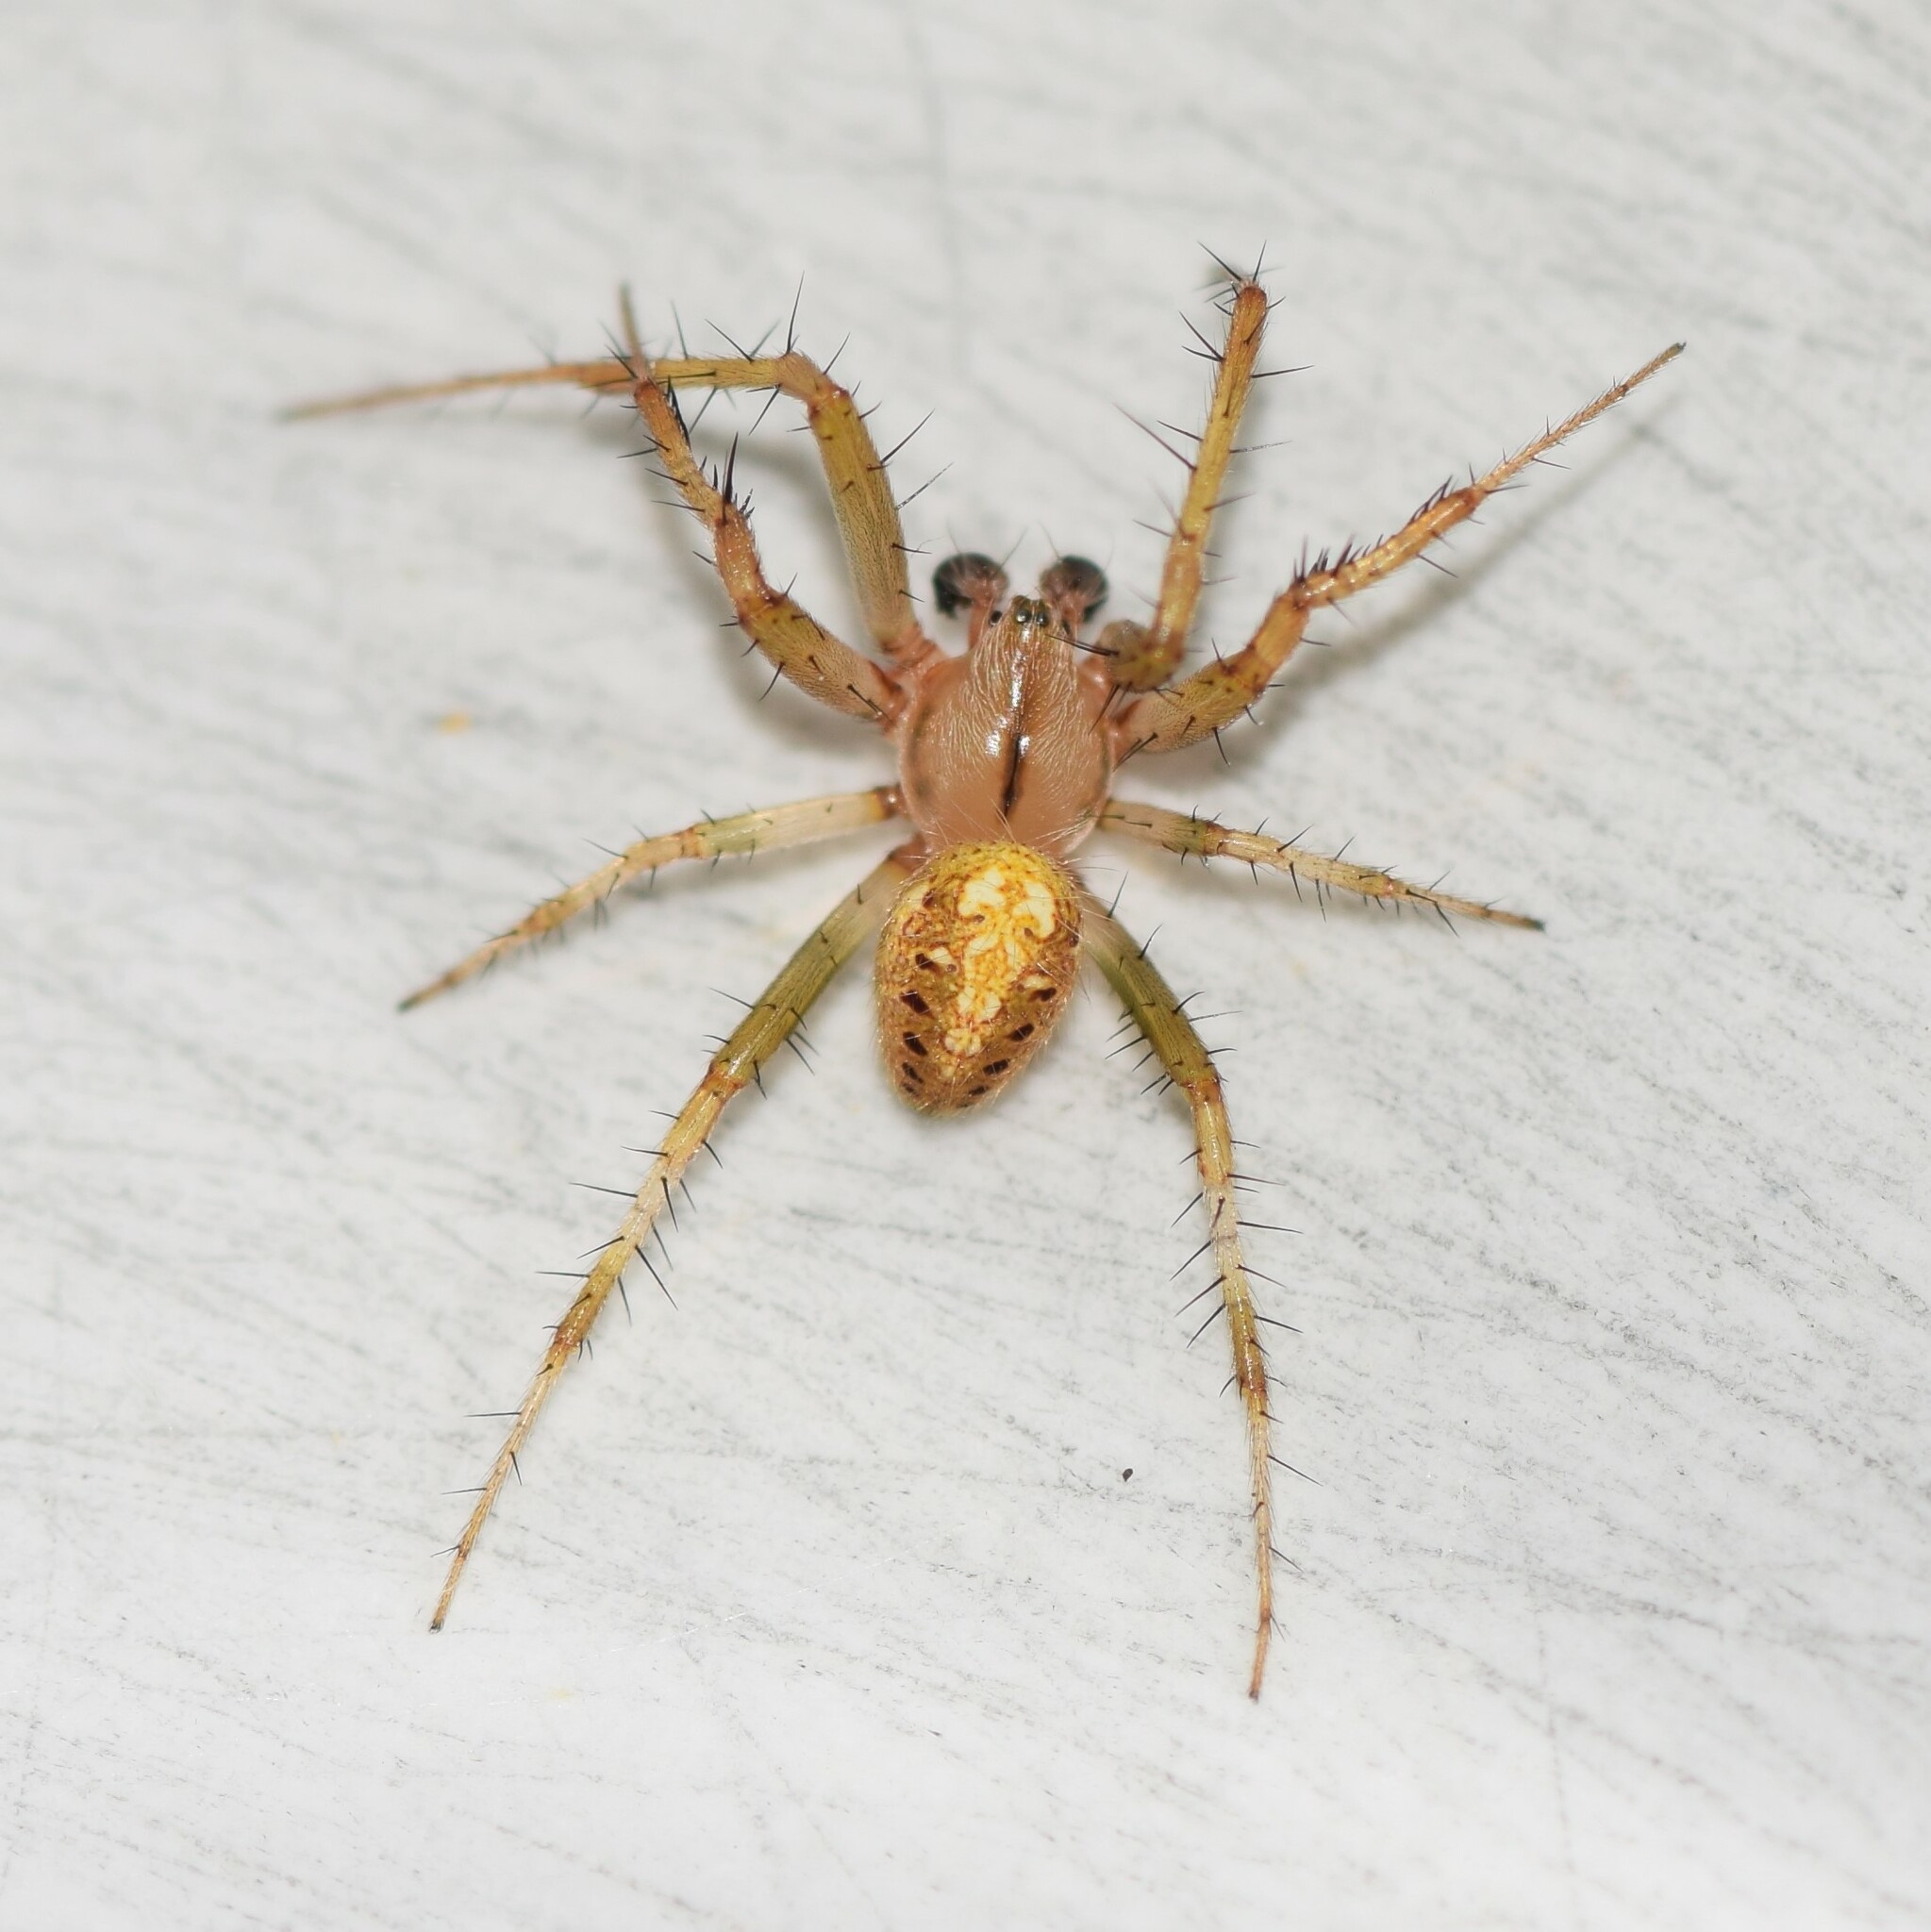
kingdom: Animalia
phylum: Arthropoda
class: Arachnida
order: Araneae
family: Araneidae
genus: Neoscona
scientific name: Neoscona arabesca
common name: Orb weavers
